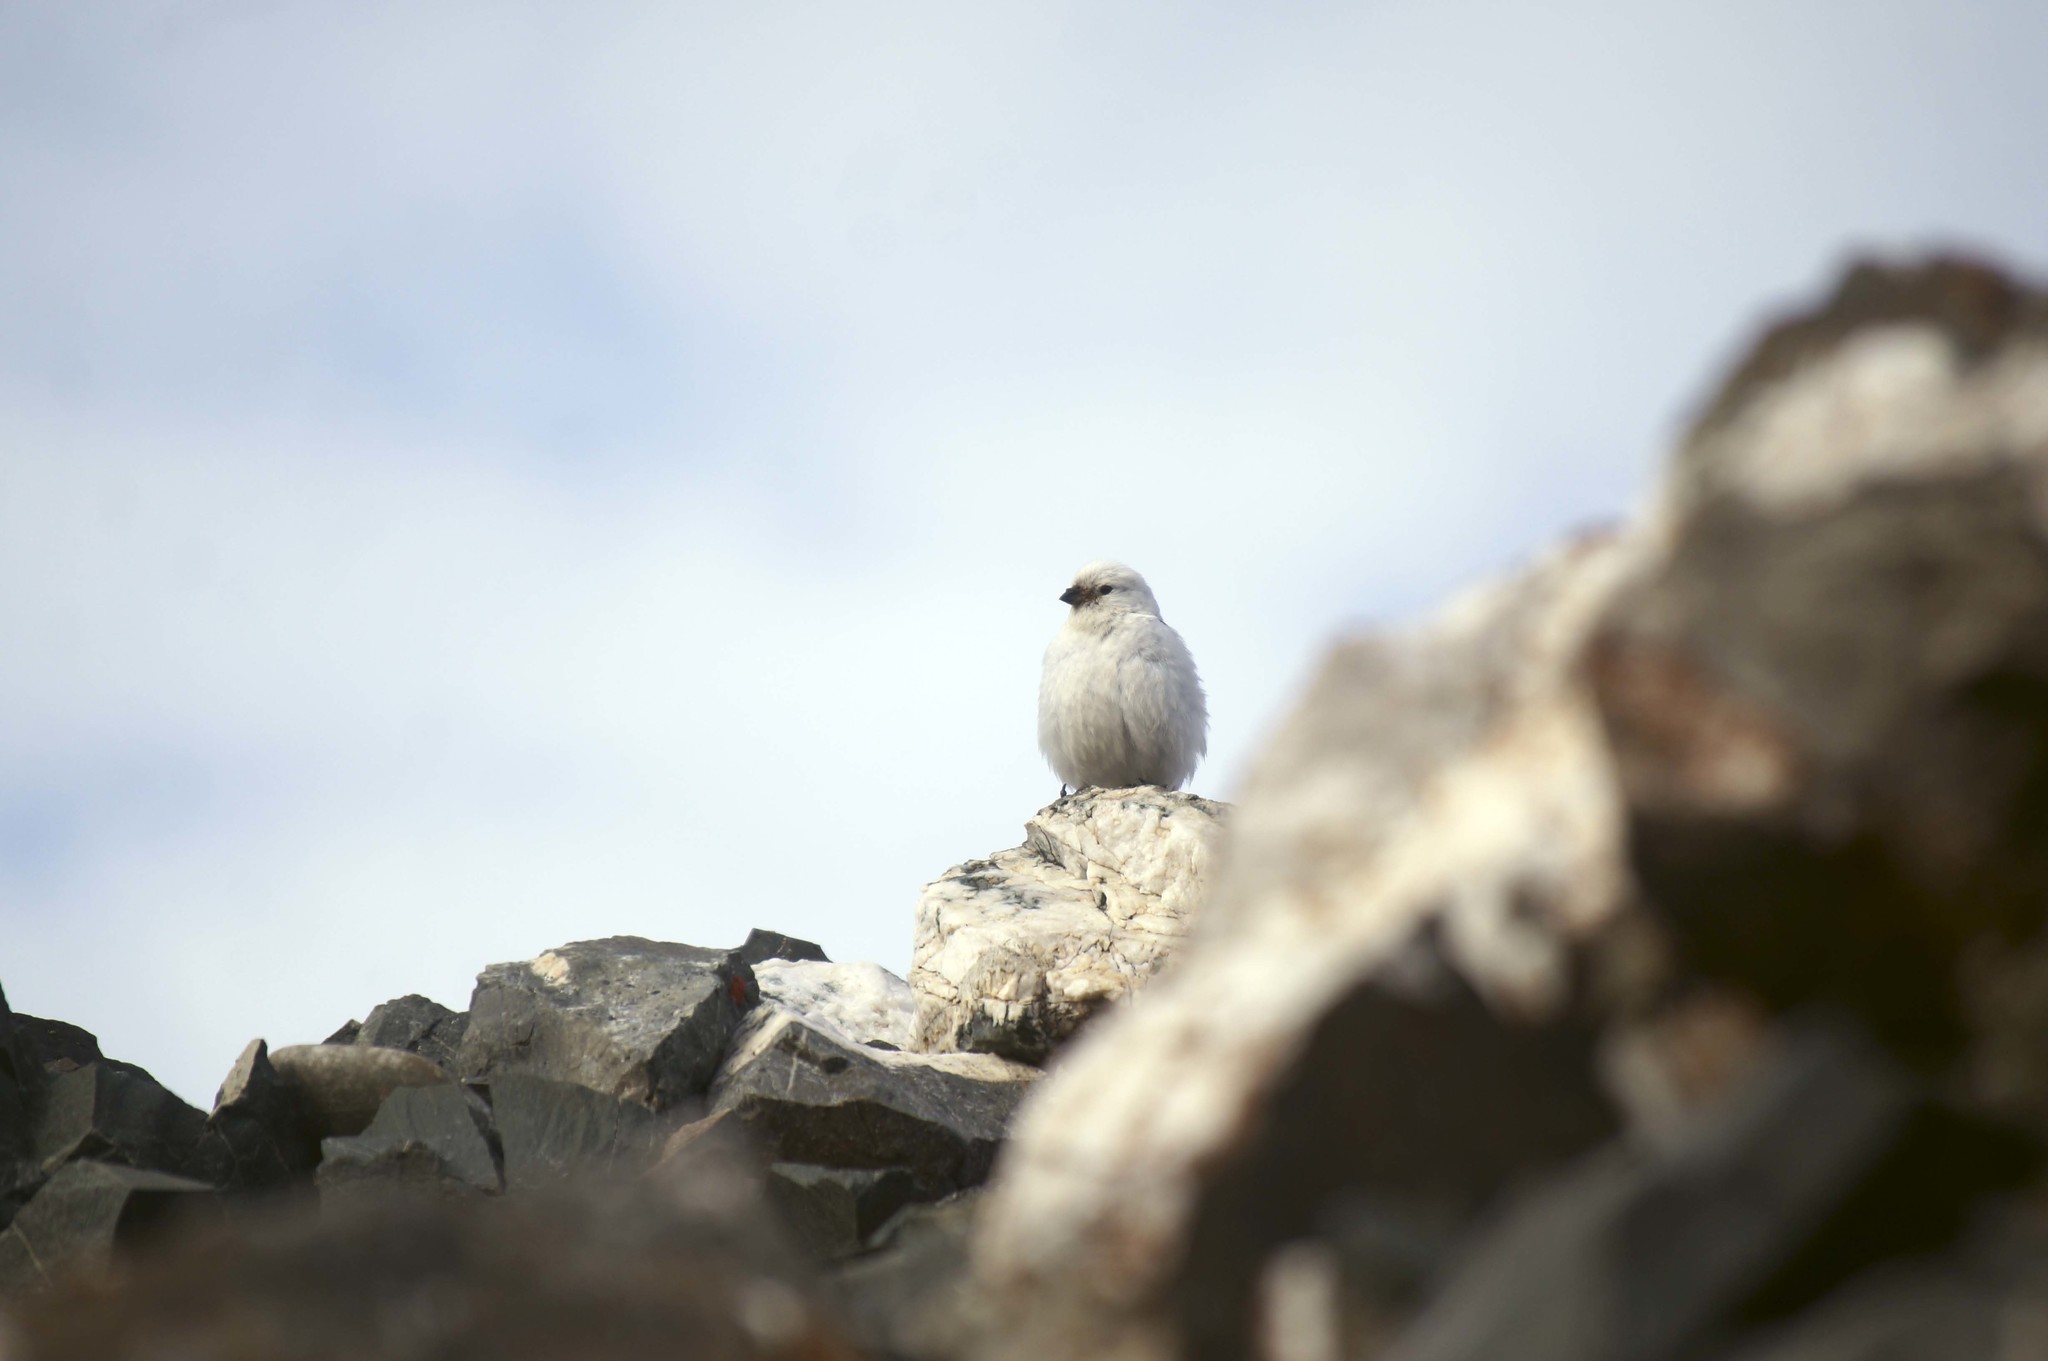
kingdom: Animalia
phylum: Chordata
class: Aves
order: Passeriformes
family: Calcariidae
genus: Plectrophenax
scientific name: Plectrophenax nivalis
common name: Snow bunting
